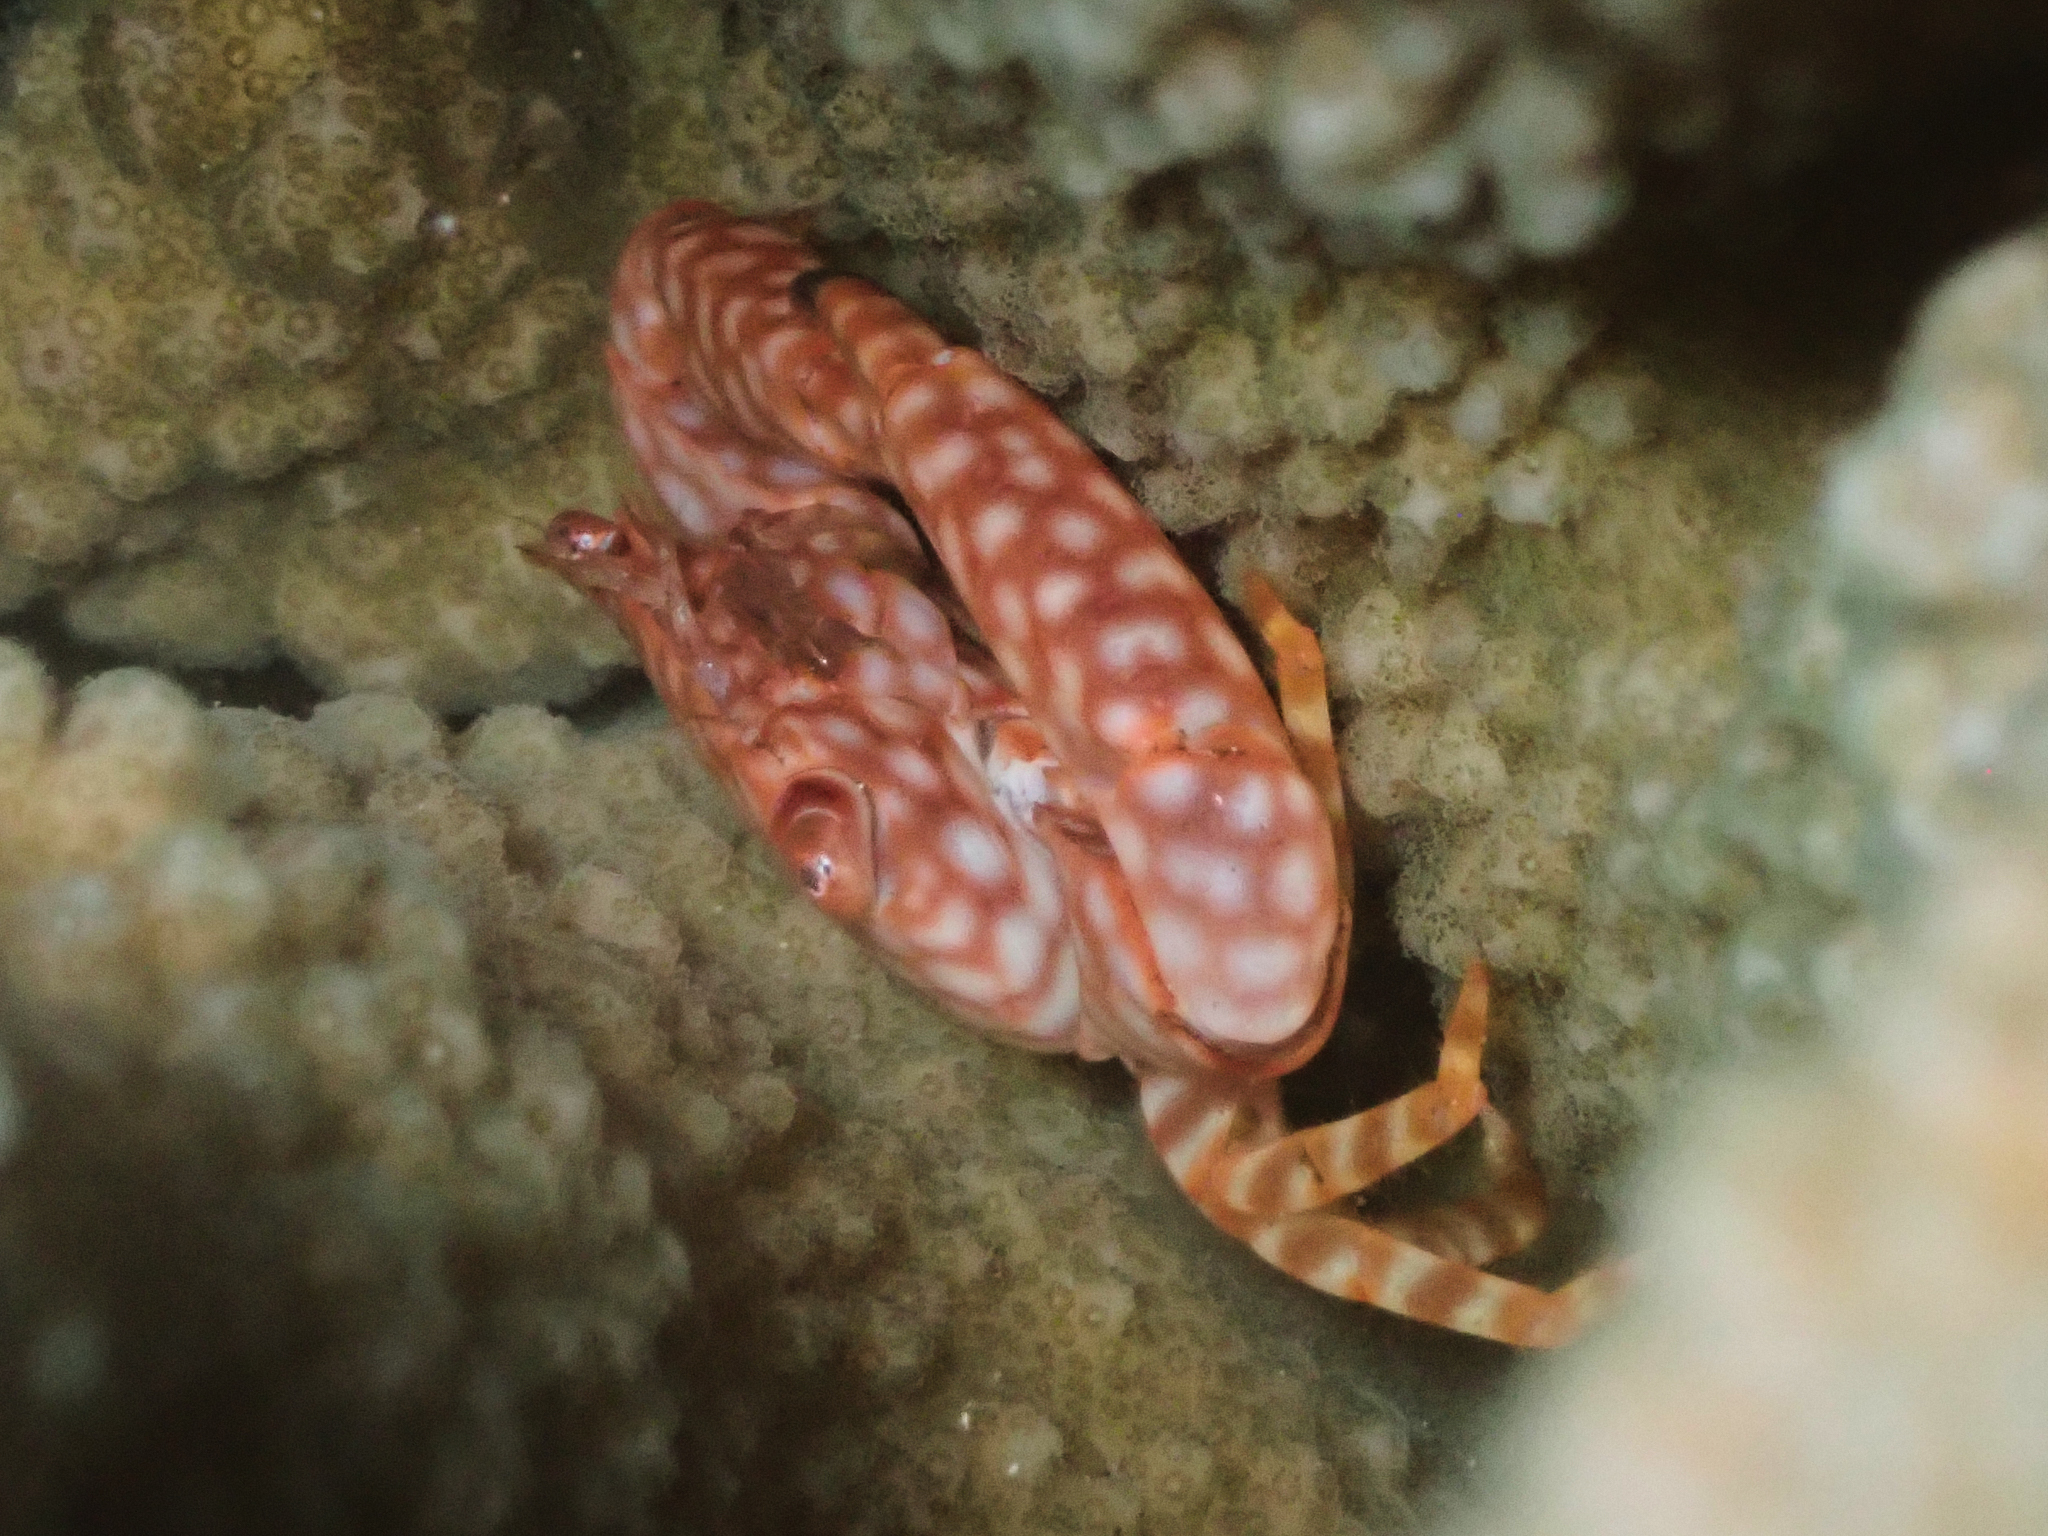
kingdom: Animalia
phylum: Arthropoda
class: Malacostraca
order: Decapoda
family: Trapeziidae
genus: Trapezia
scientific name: Trapezia flavopunctata
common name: Yellow-spotted guard crab
